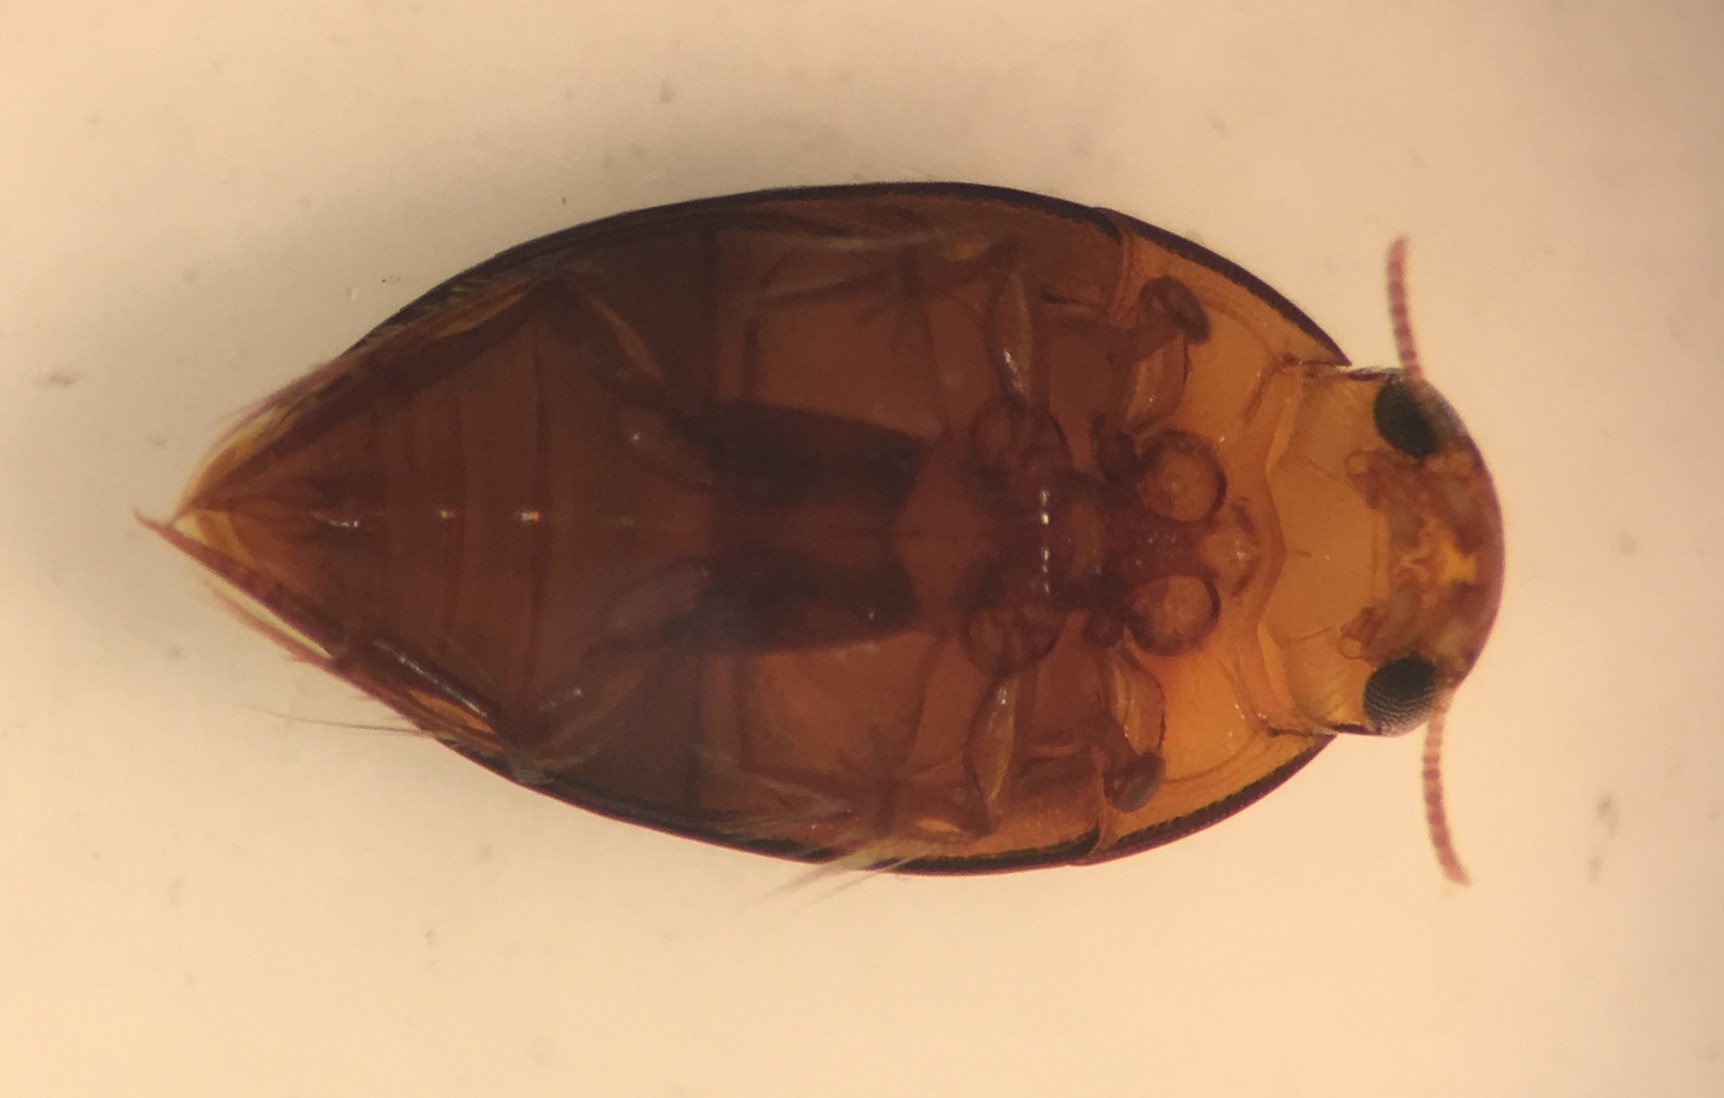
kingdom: Animalia
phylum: Arthropoda
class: Insecta
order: Coleoptera
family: Noteridae
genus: Suphisellus
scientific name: Suphisellus bicolor
